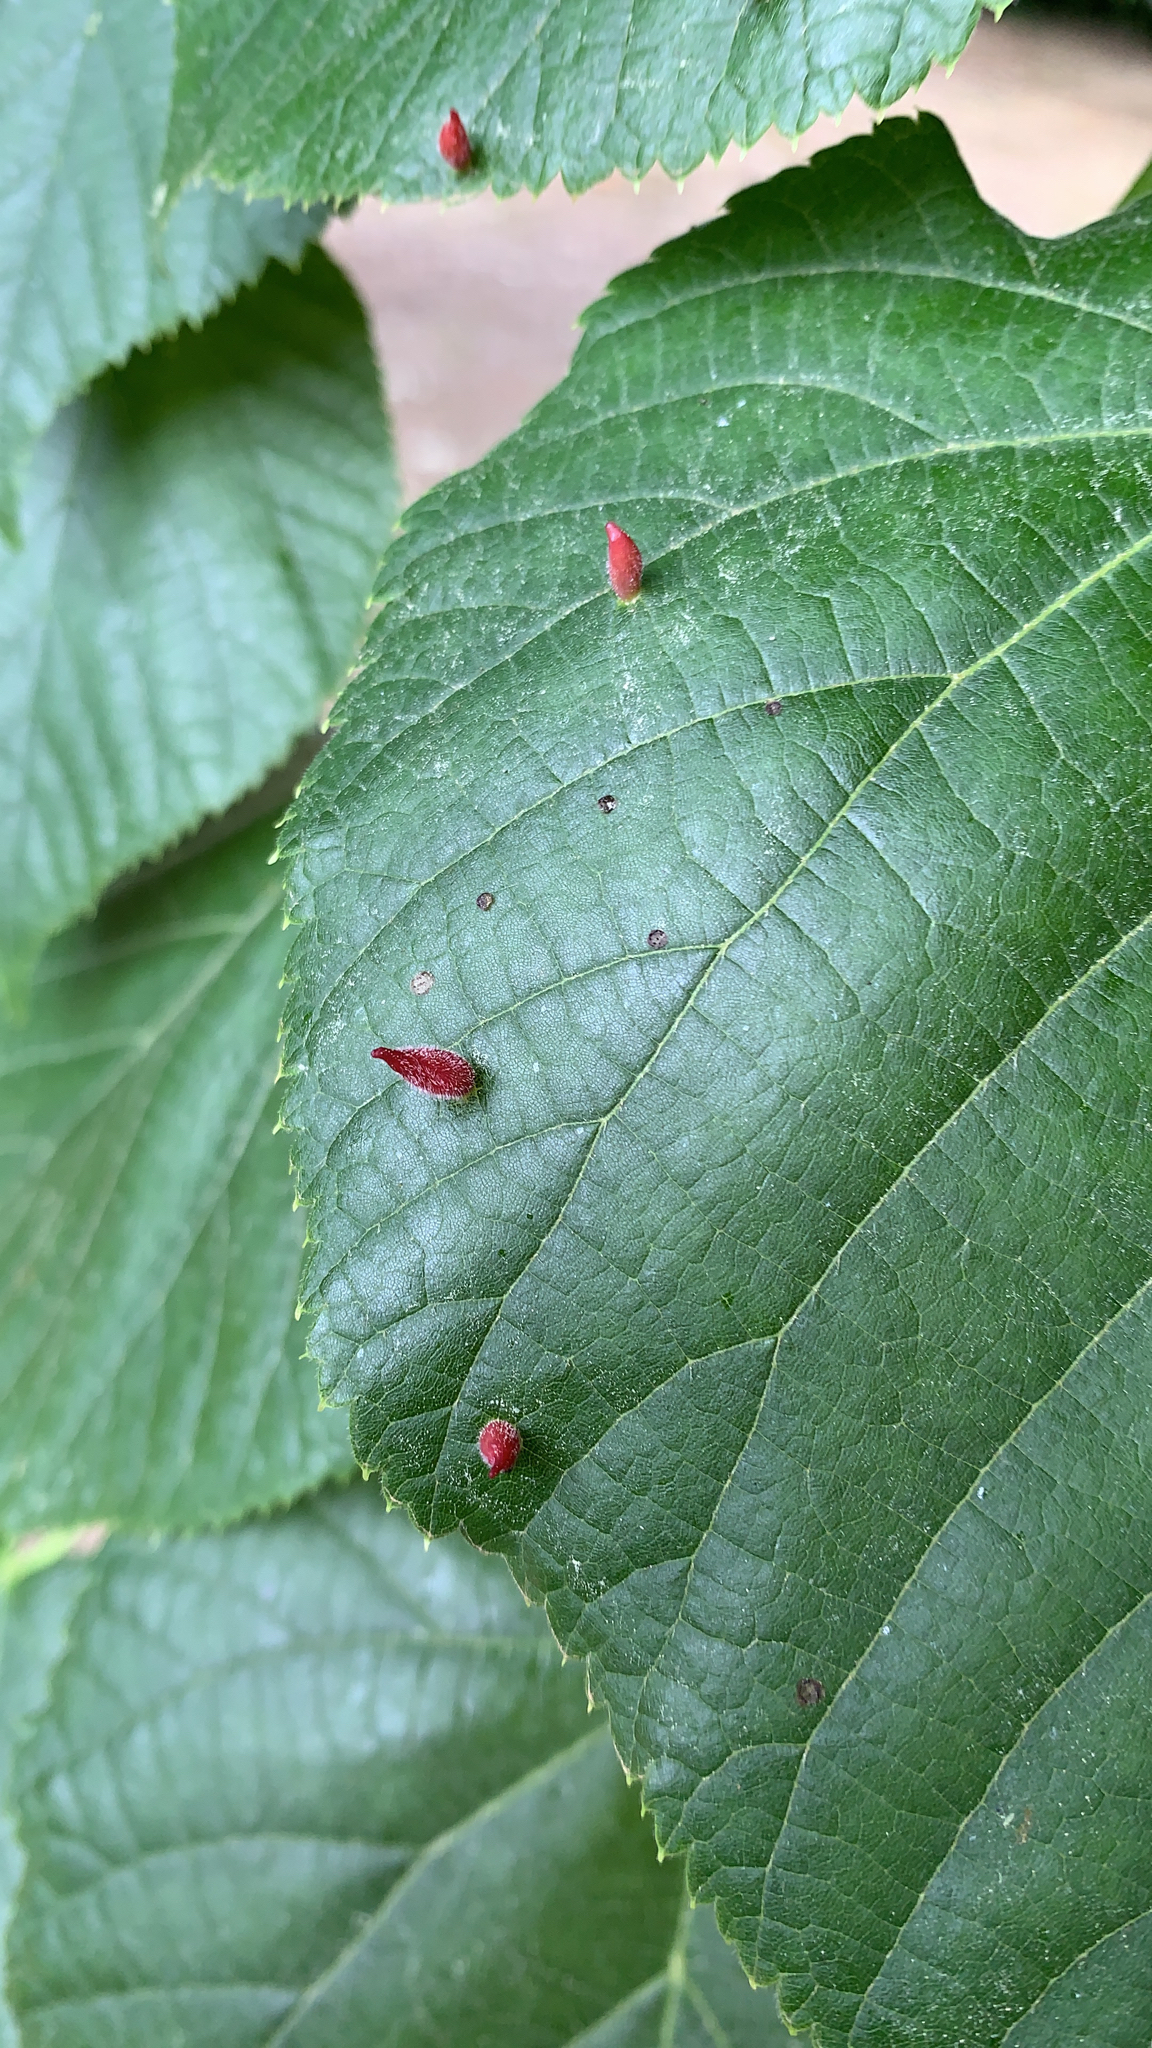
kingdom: Animalia
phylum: Arthropoda
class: Arachnida
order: Trombidiformes
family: Eriophyidae
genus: Eriophyes
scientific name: Eriophyes tiliae
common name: Red nail gall mite
